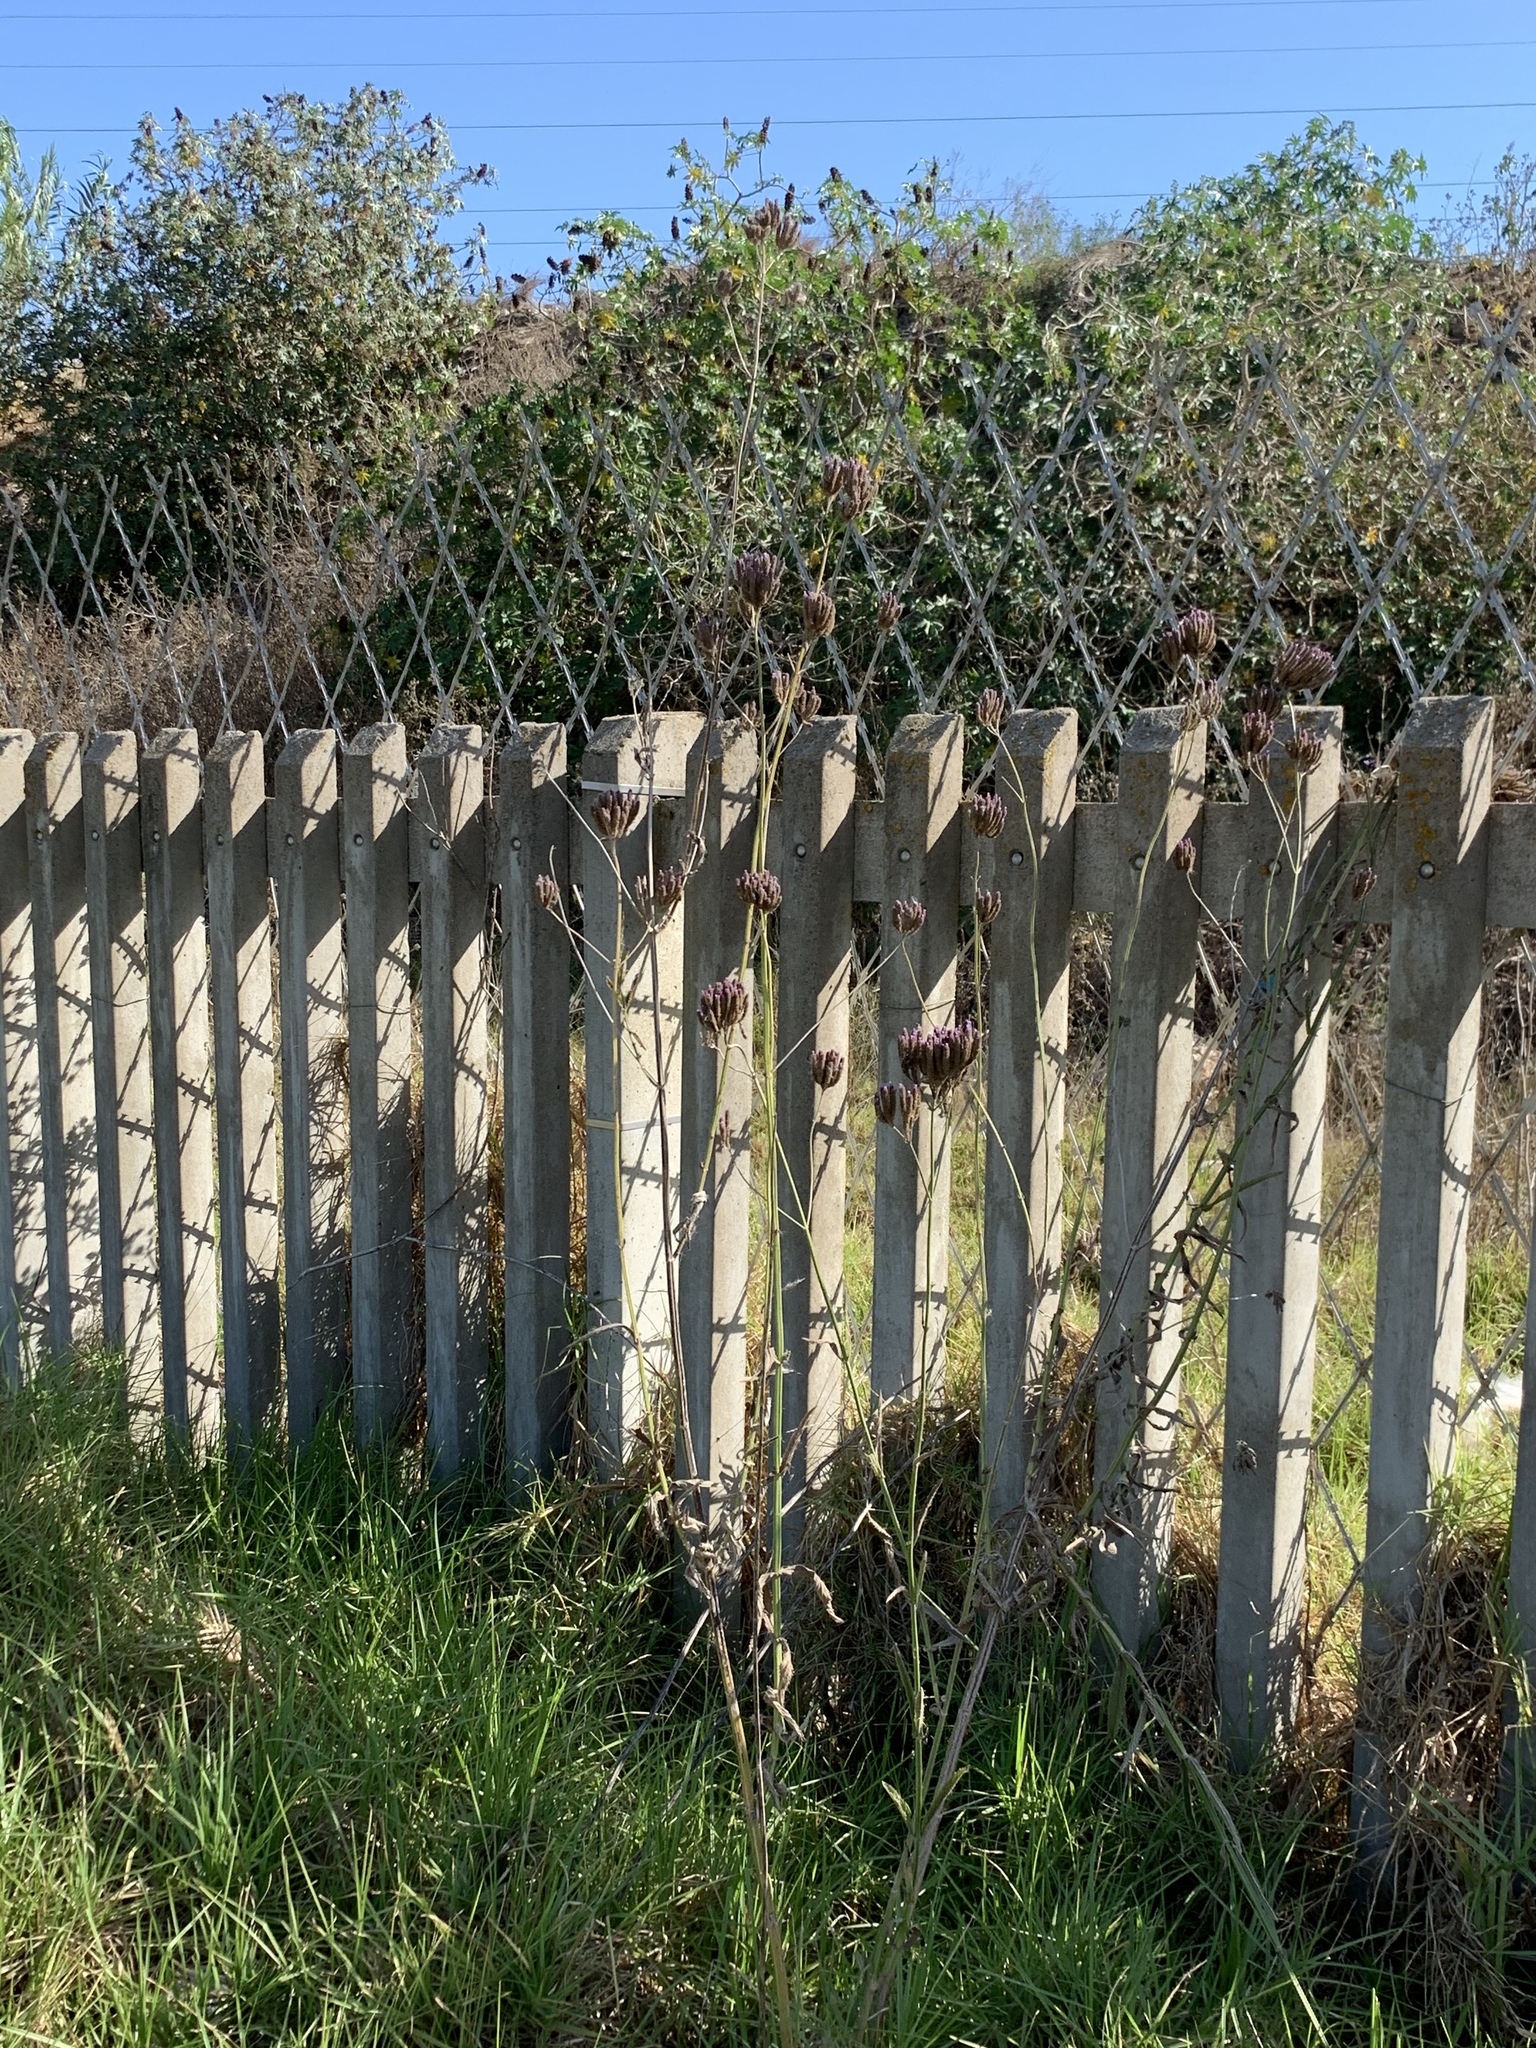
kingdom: Plantae
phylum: Tracheophyta
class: Magnoliopsida
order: Lamiales
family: Verbenaceae
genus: Verbena
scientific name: Verbena bonariensis
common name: Purpletop vervain
